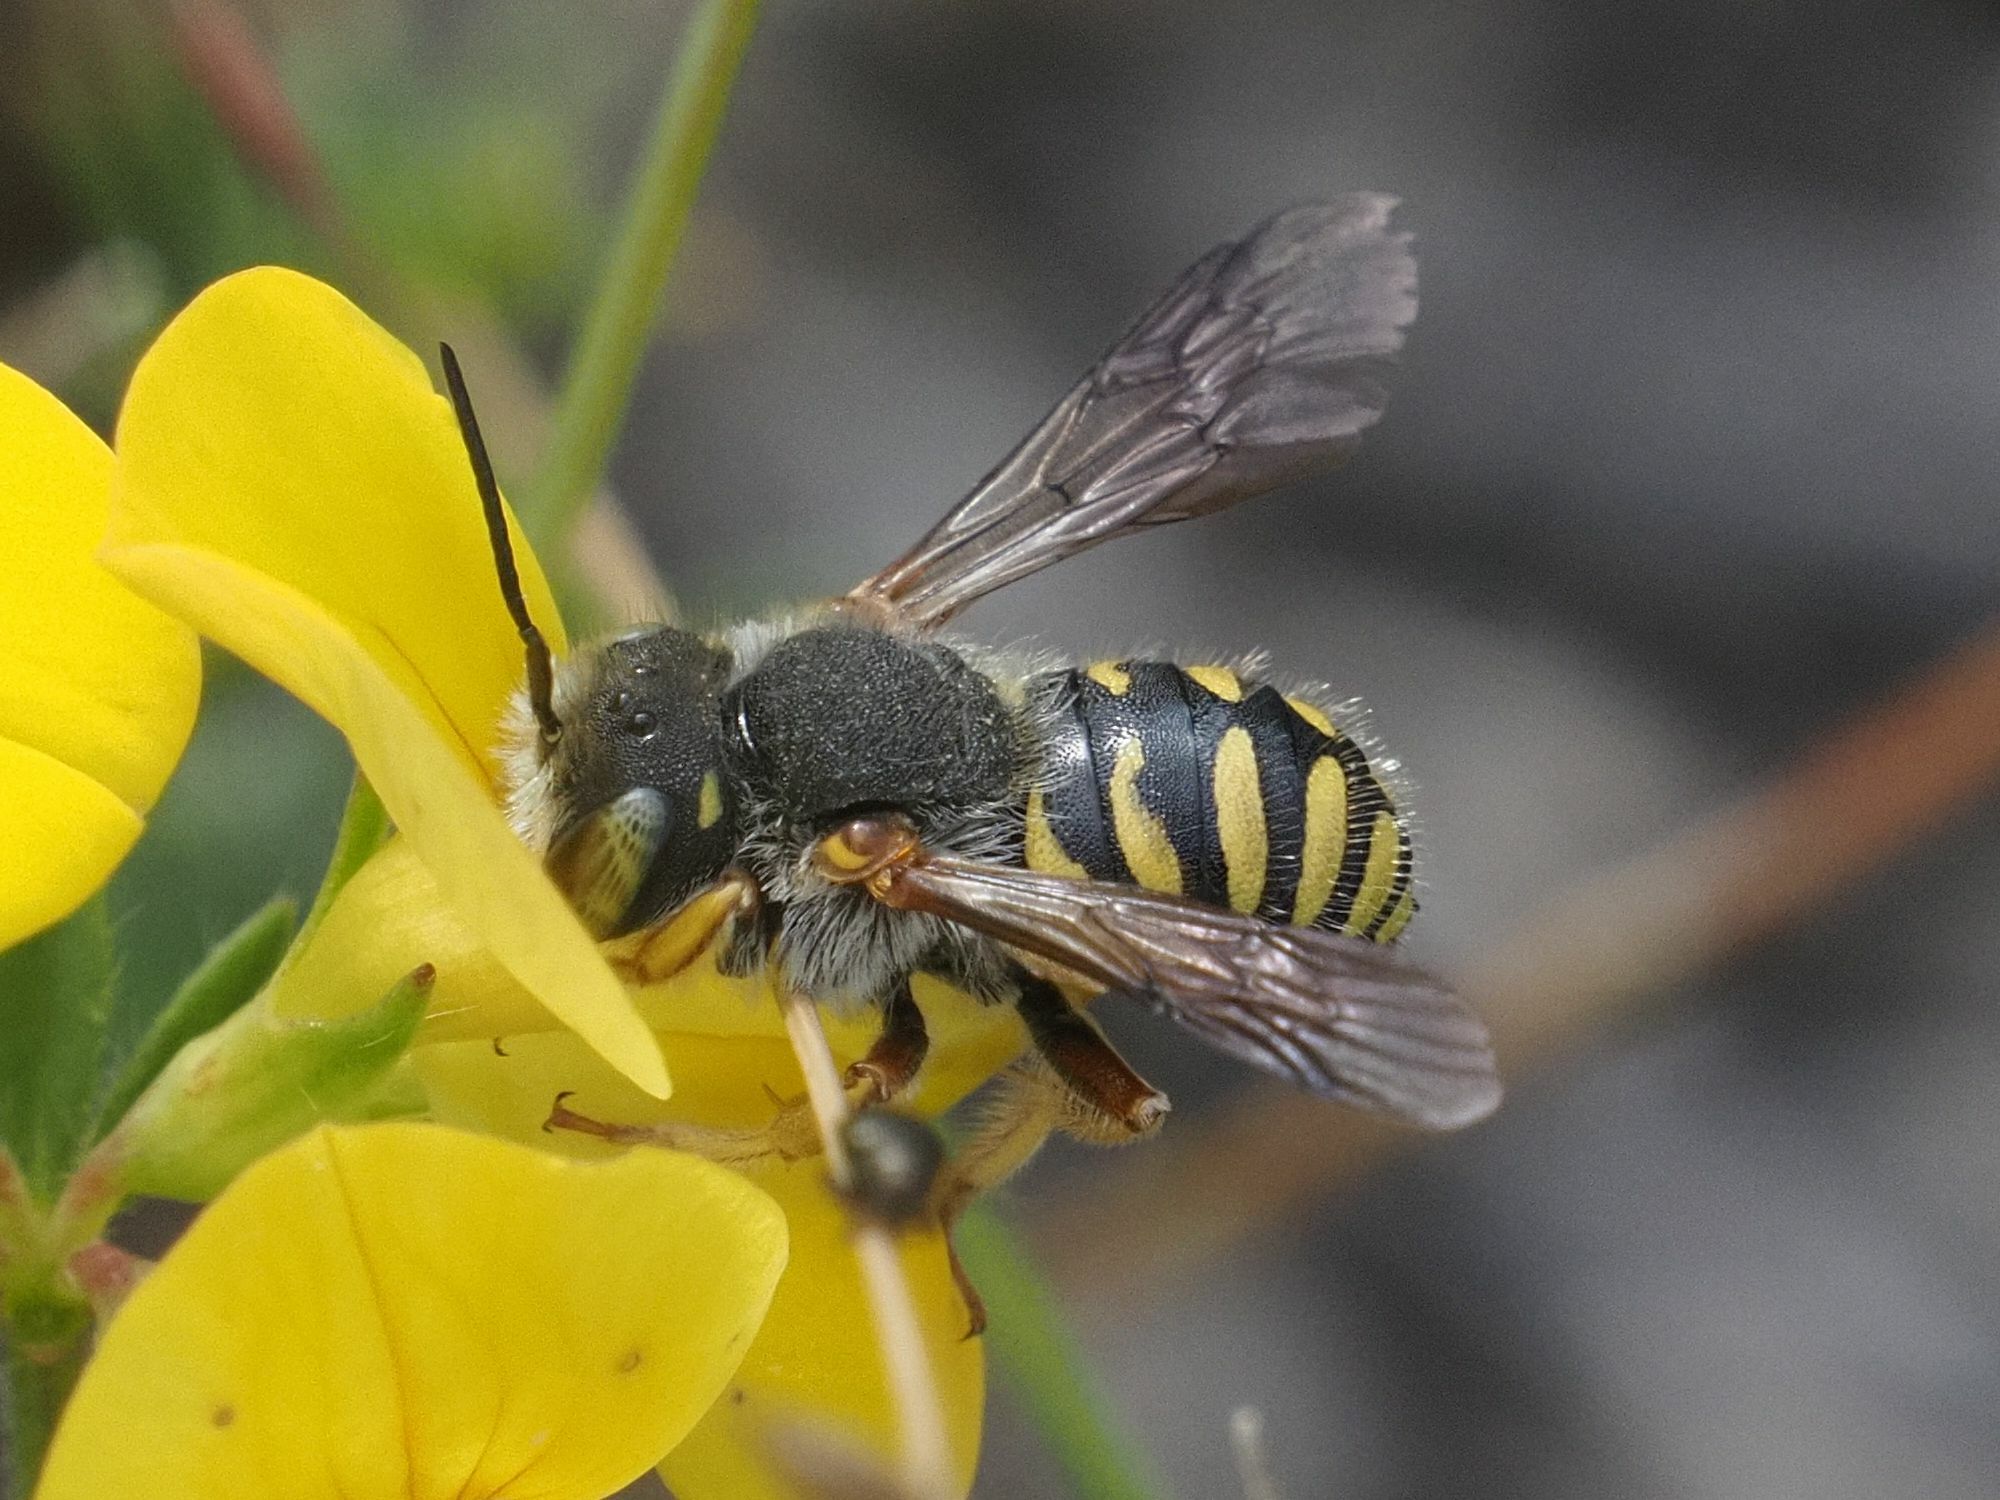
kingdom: Animalia
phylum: Arthropoda
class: Insecta
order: Hymenoptera
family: Megachilidae
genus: Anthidium
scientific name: Anthidium oblongatum
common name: Oblong wool carder bee
